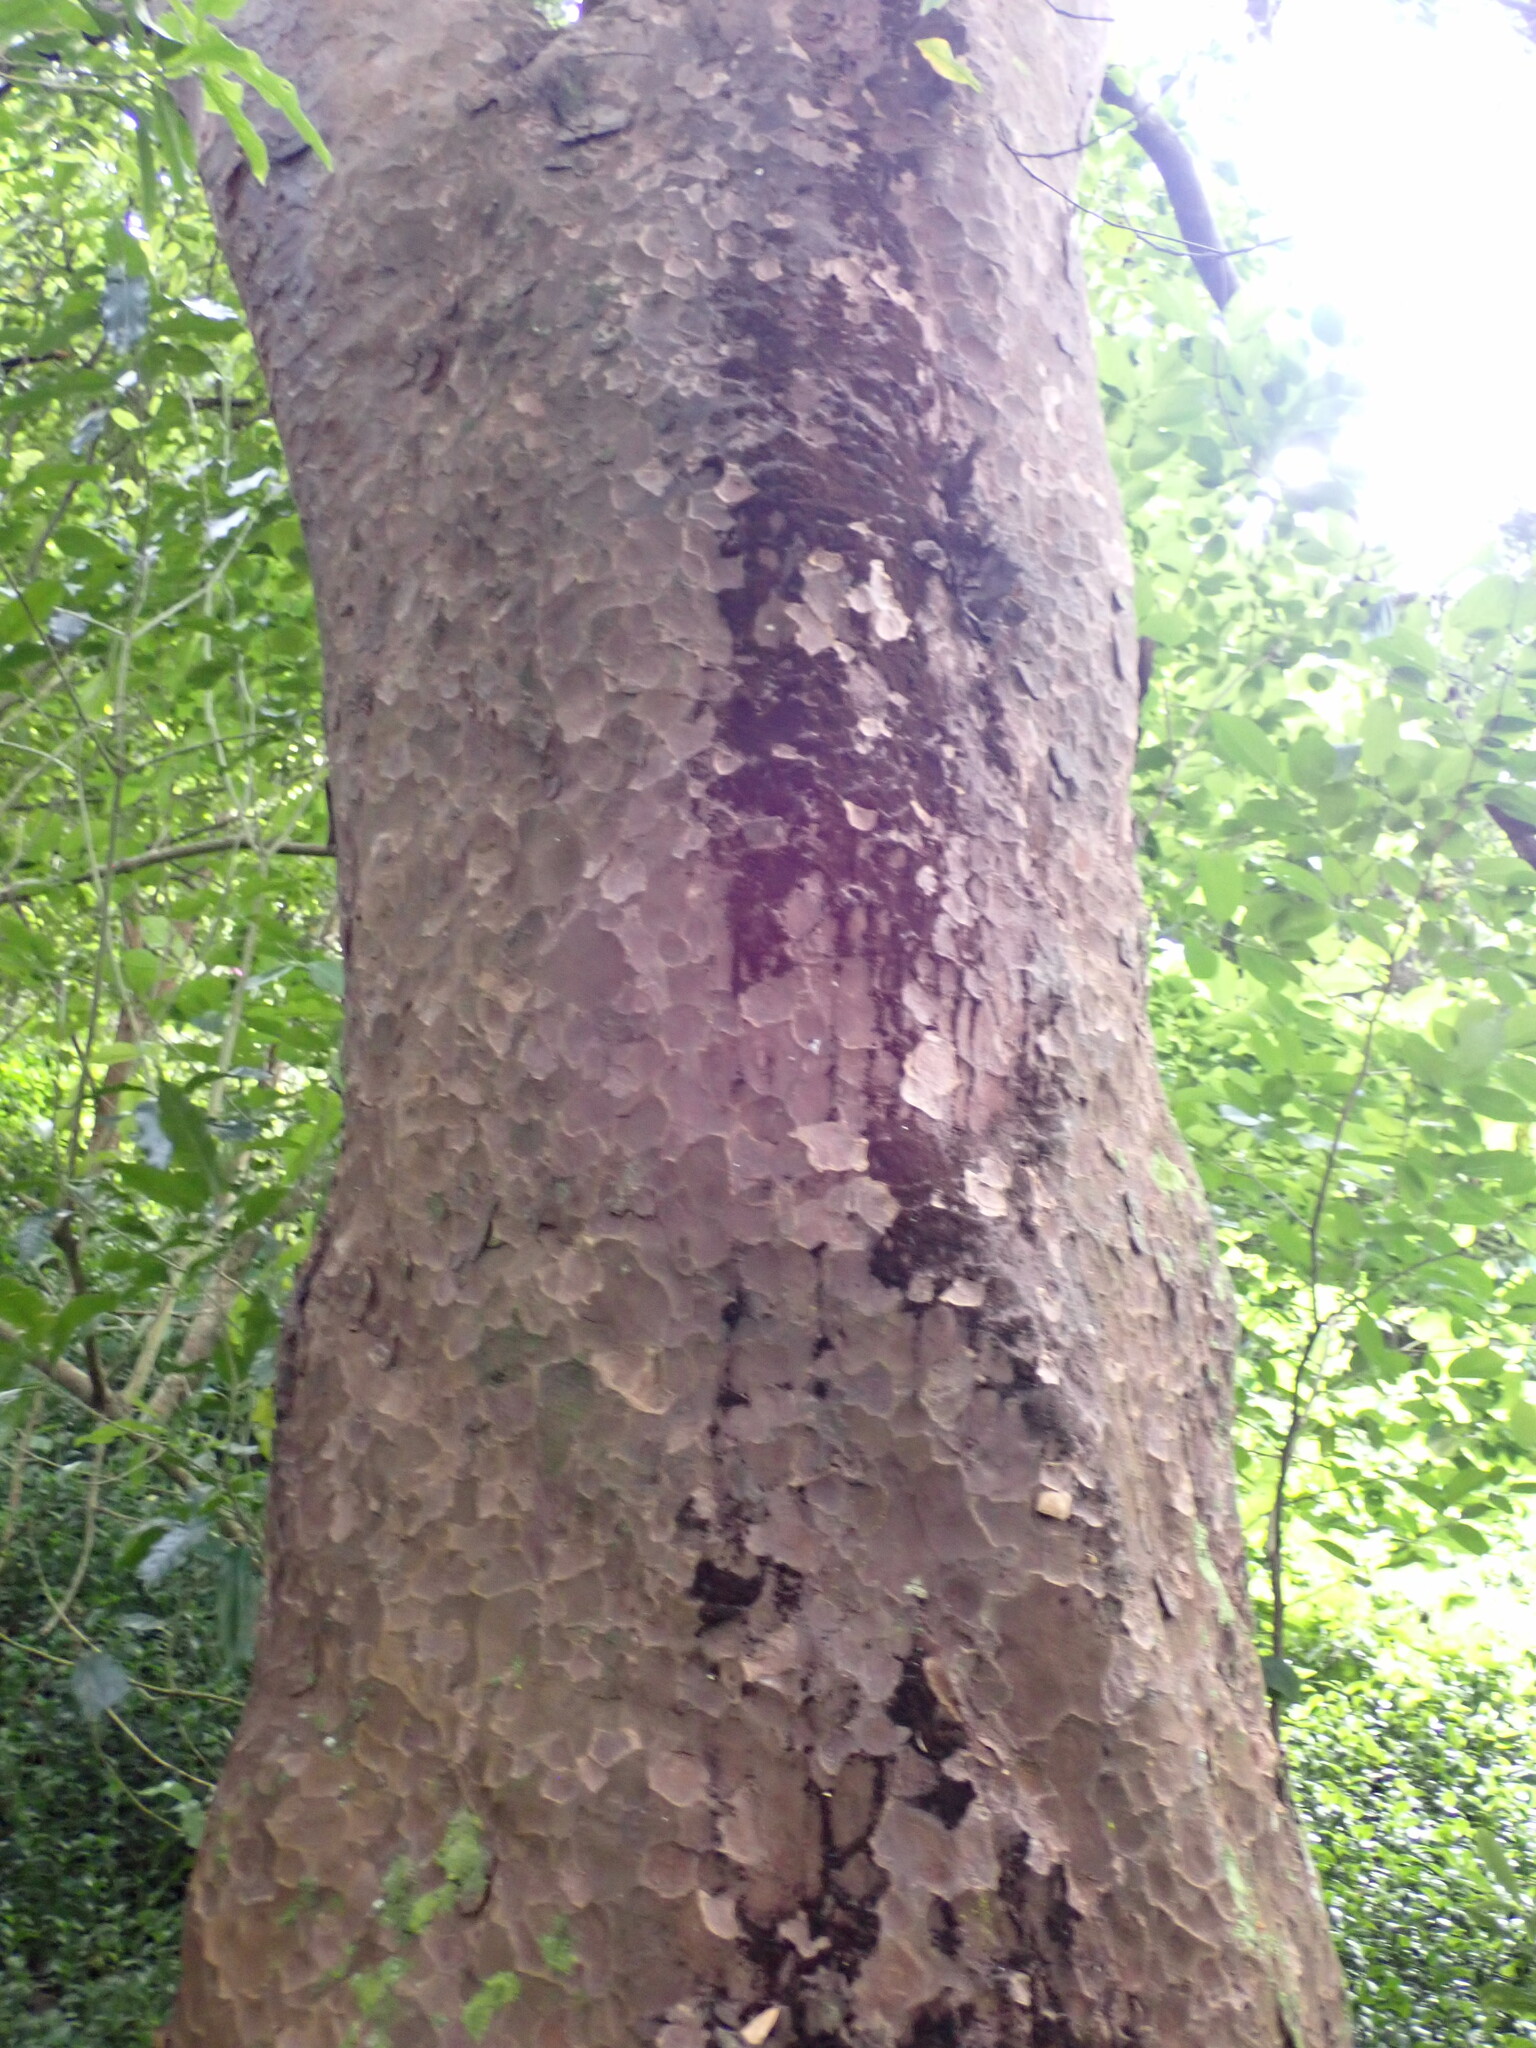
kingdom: Plantae
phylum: Tracheophyta
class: Pinopsida
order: Pinales
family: Podocarpaceae
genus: Prumnopitys
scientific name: Prumnopitys taxifolia
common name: Matai
